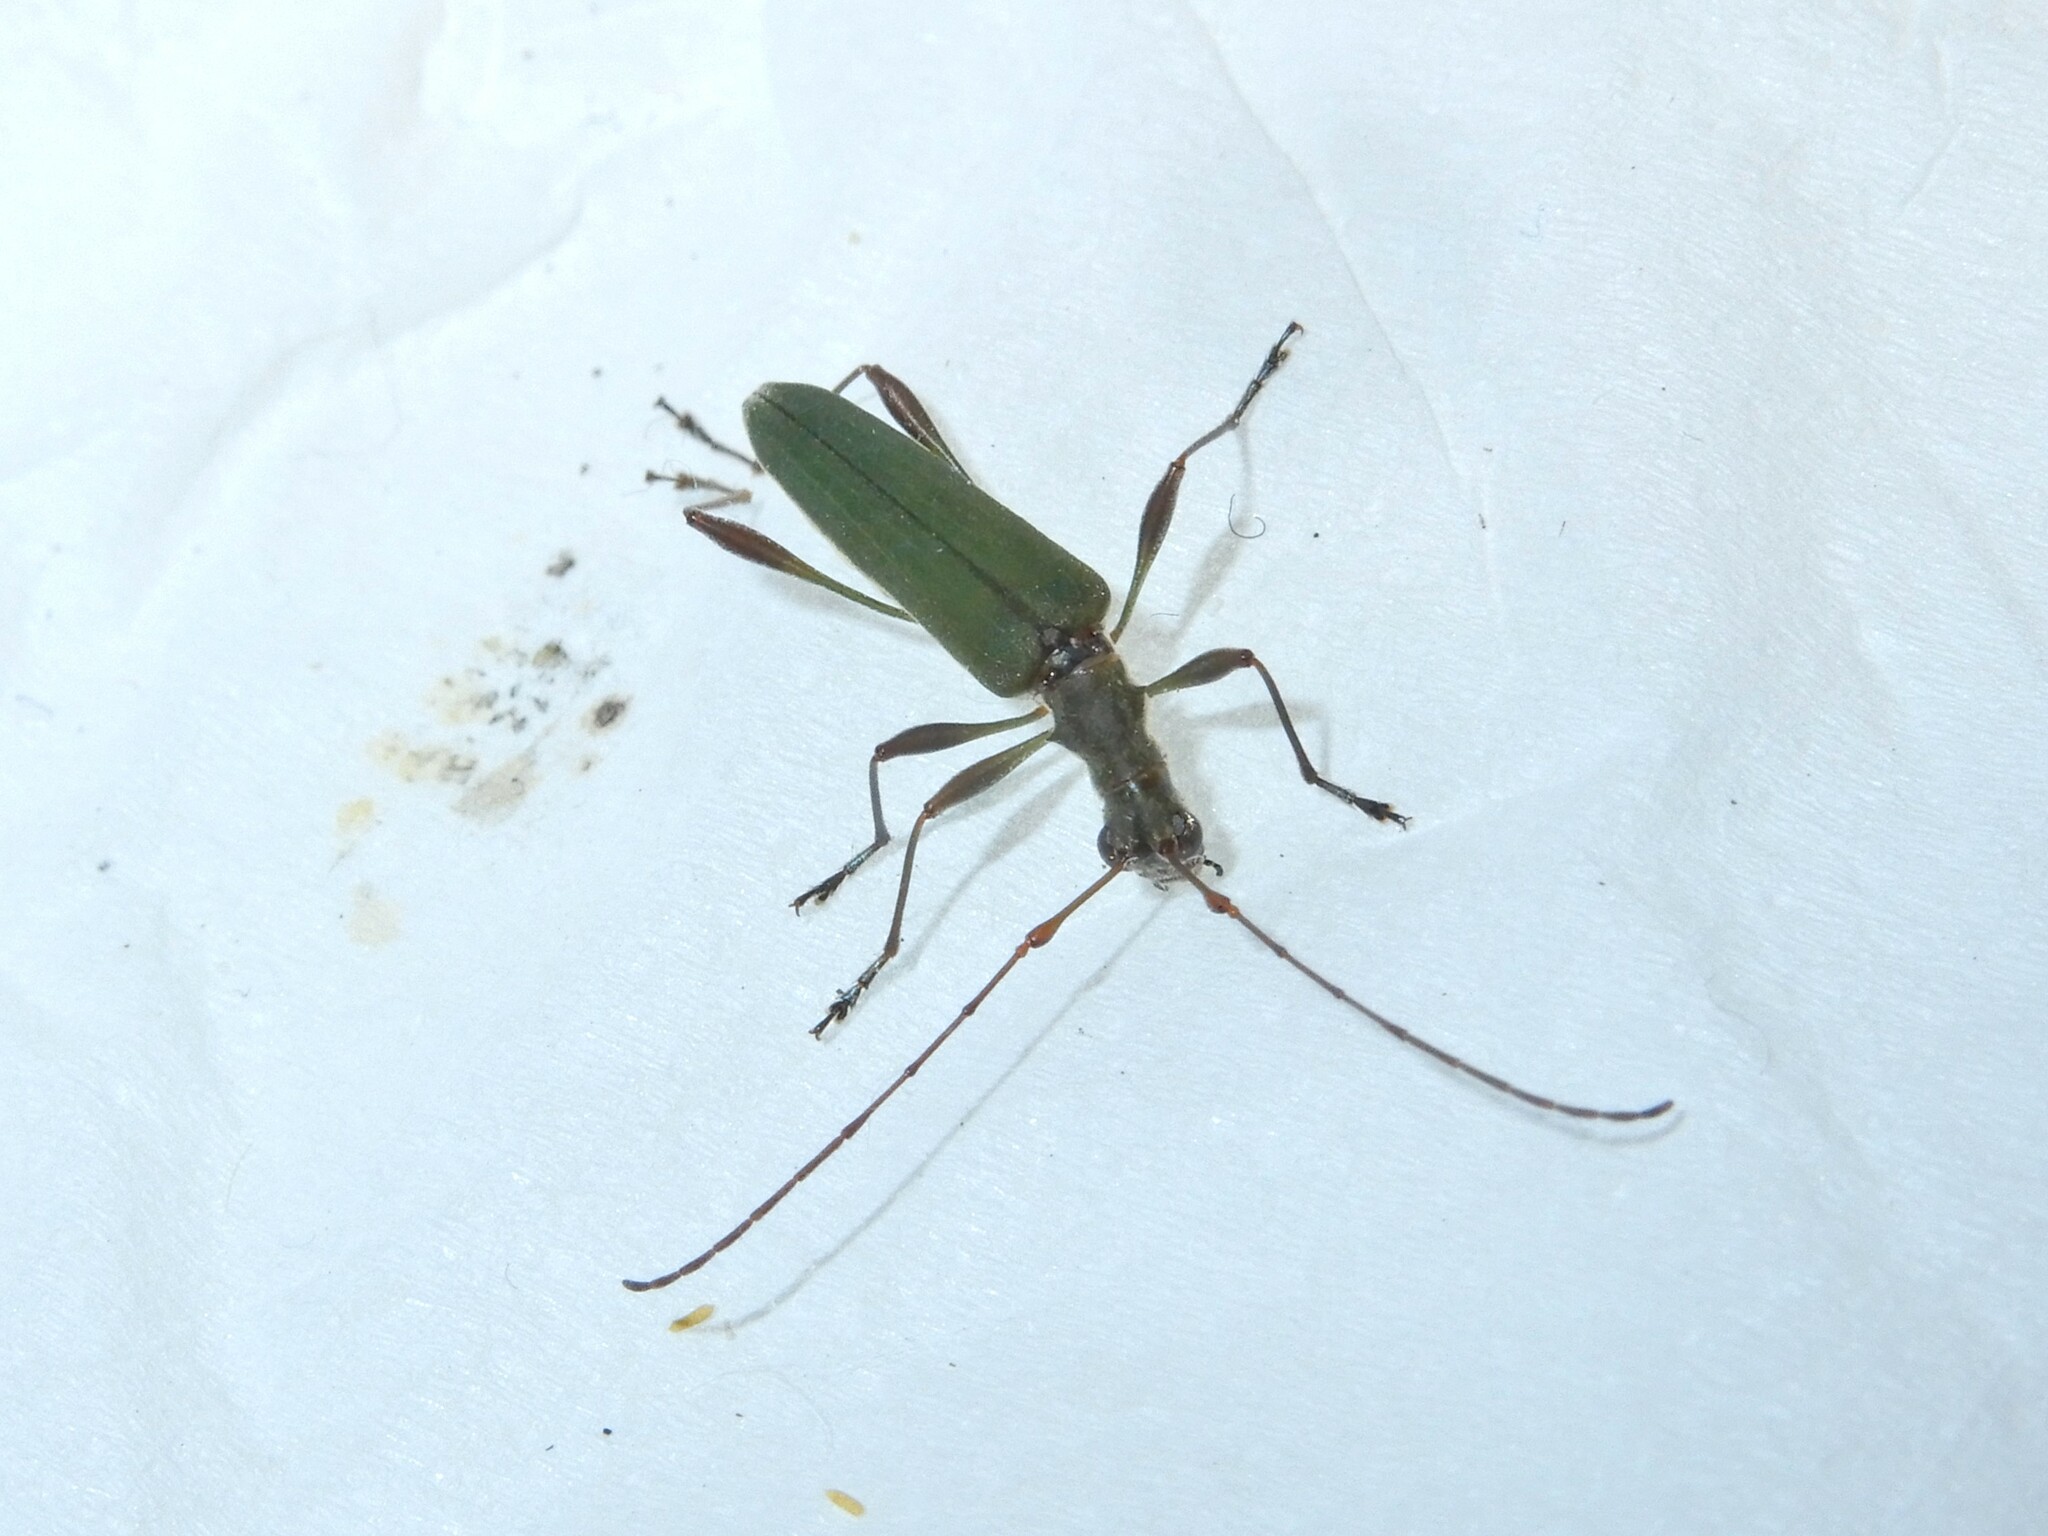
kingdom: Animalia
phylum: Arthropoda
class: Insecta
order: Coleoptera
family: Cerambycidae
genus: Calliprason
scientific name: Calliprason sinclairi
